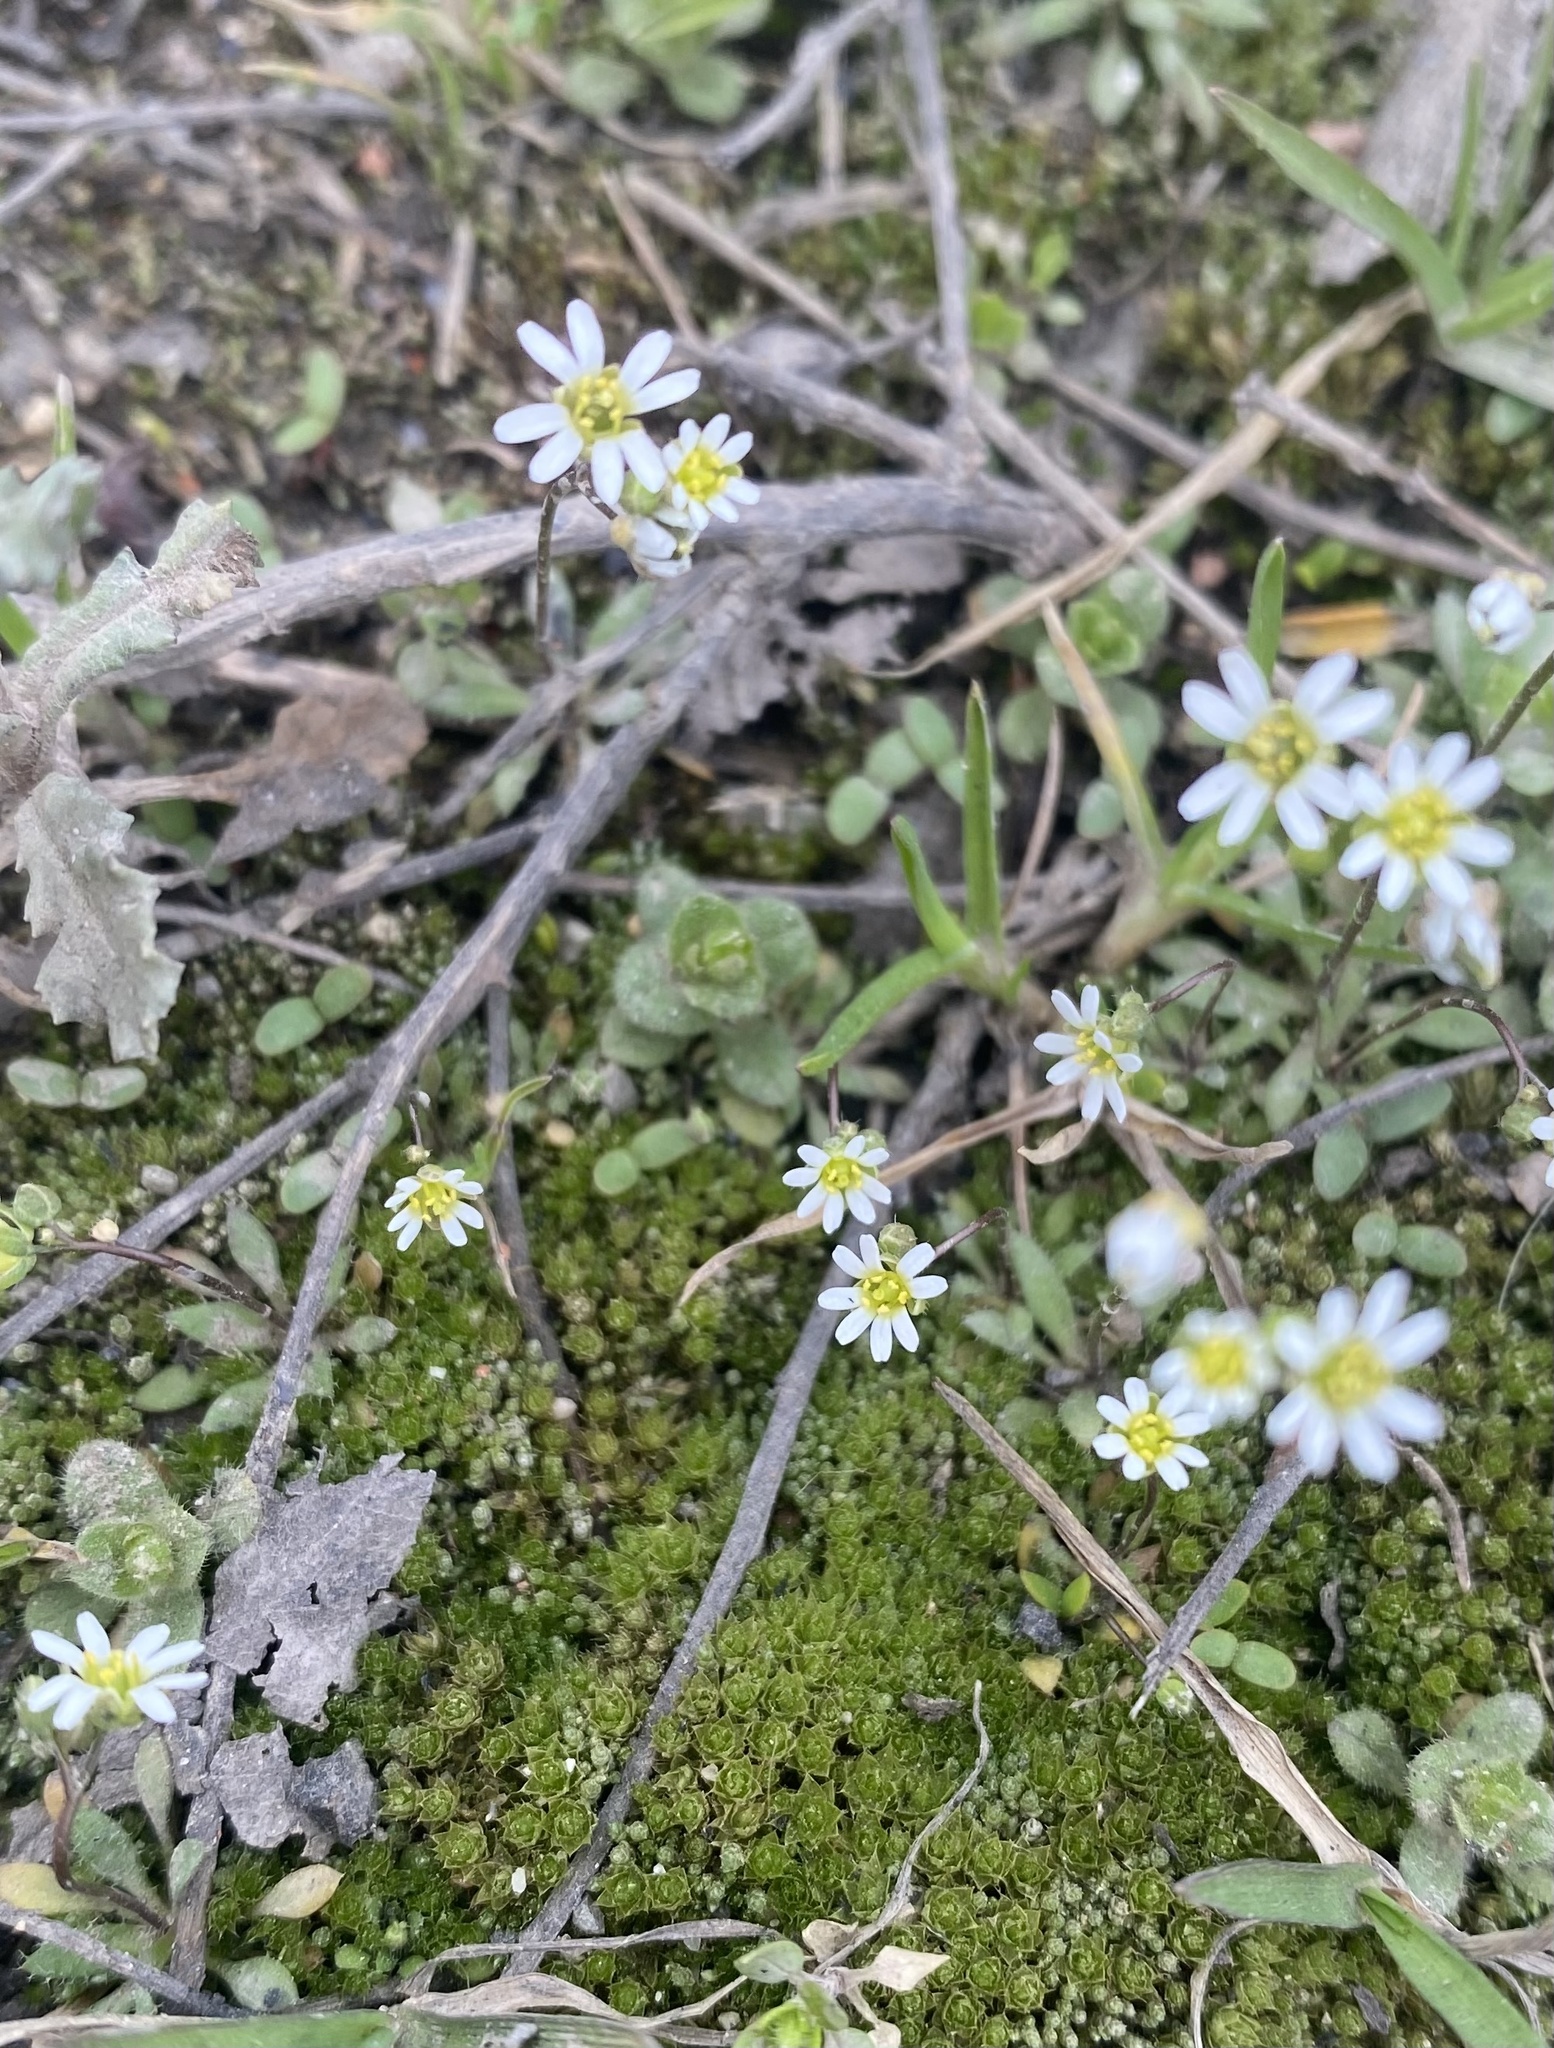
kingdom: Plantae
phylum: Tracheophyta
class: Magnoliopsida
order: Brassicales
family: Brassicaceae
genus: Draba
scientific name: Draba verna
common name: Spring draba
